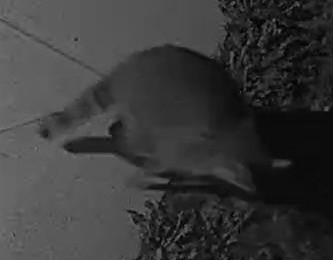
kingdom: Animalia
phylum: Chordata
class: Mammalia
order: Carnivora
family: Procyonidae
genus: Procyon
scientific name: Procyon lotor
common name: Raccoon
